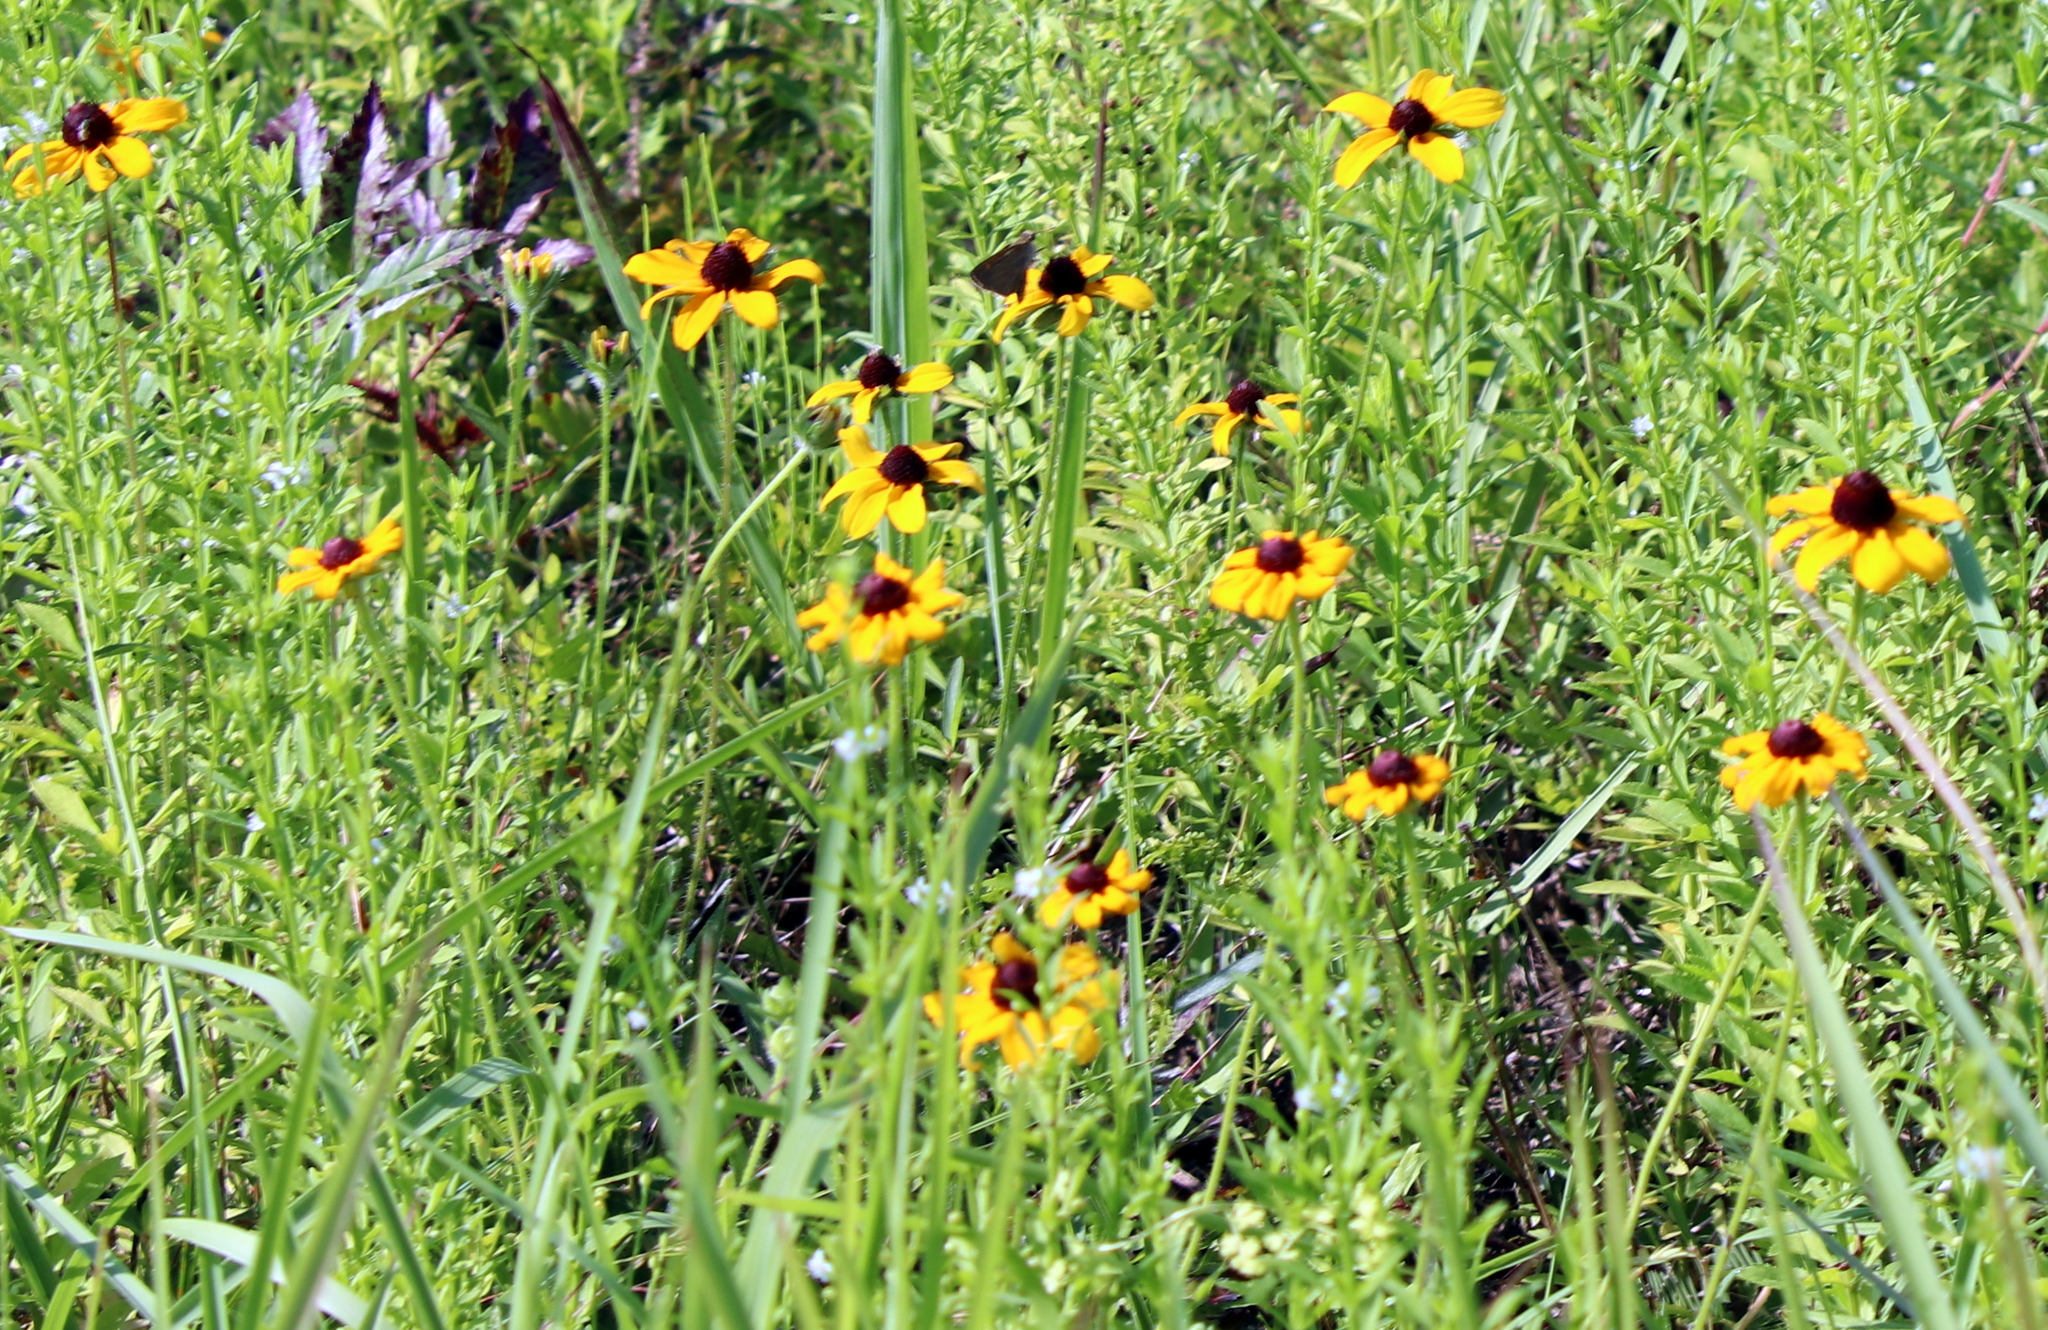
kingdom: Plantae
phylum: Tracheophyta
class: Magnoliopsida
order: Asterales
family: Asteraceae
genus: Rudbeckia
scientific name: Rudbeckia hirta
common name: Black-eyed-susan
